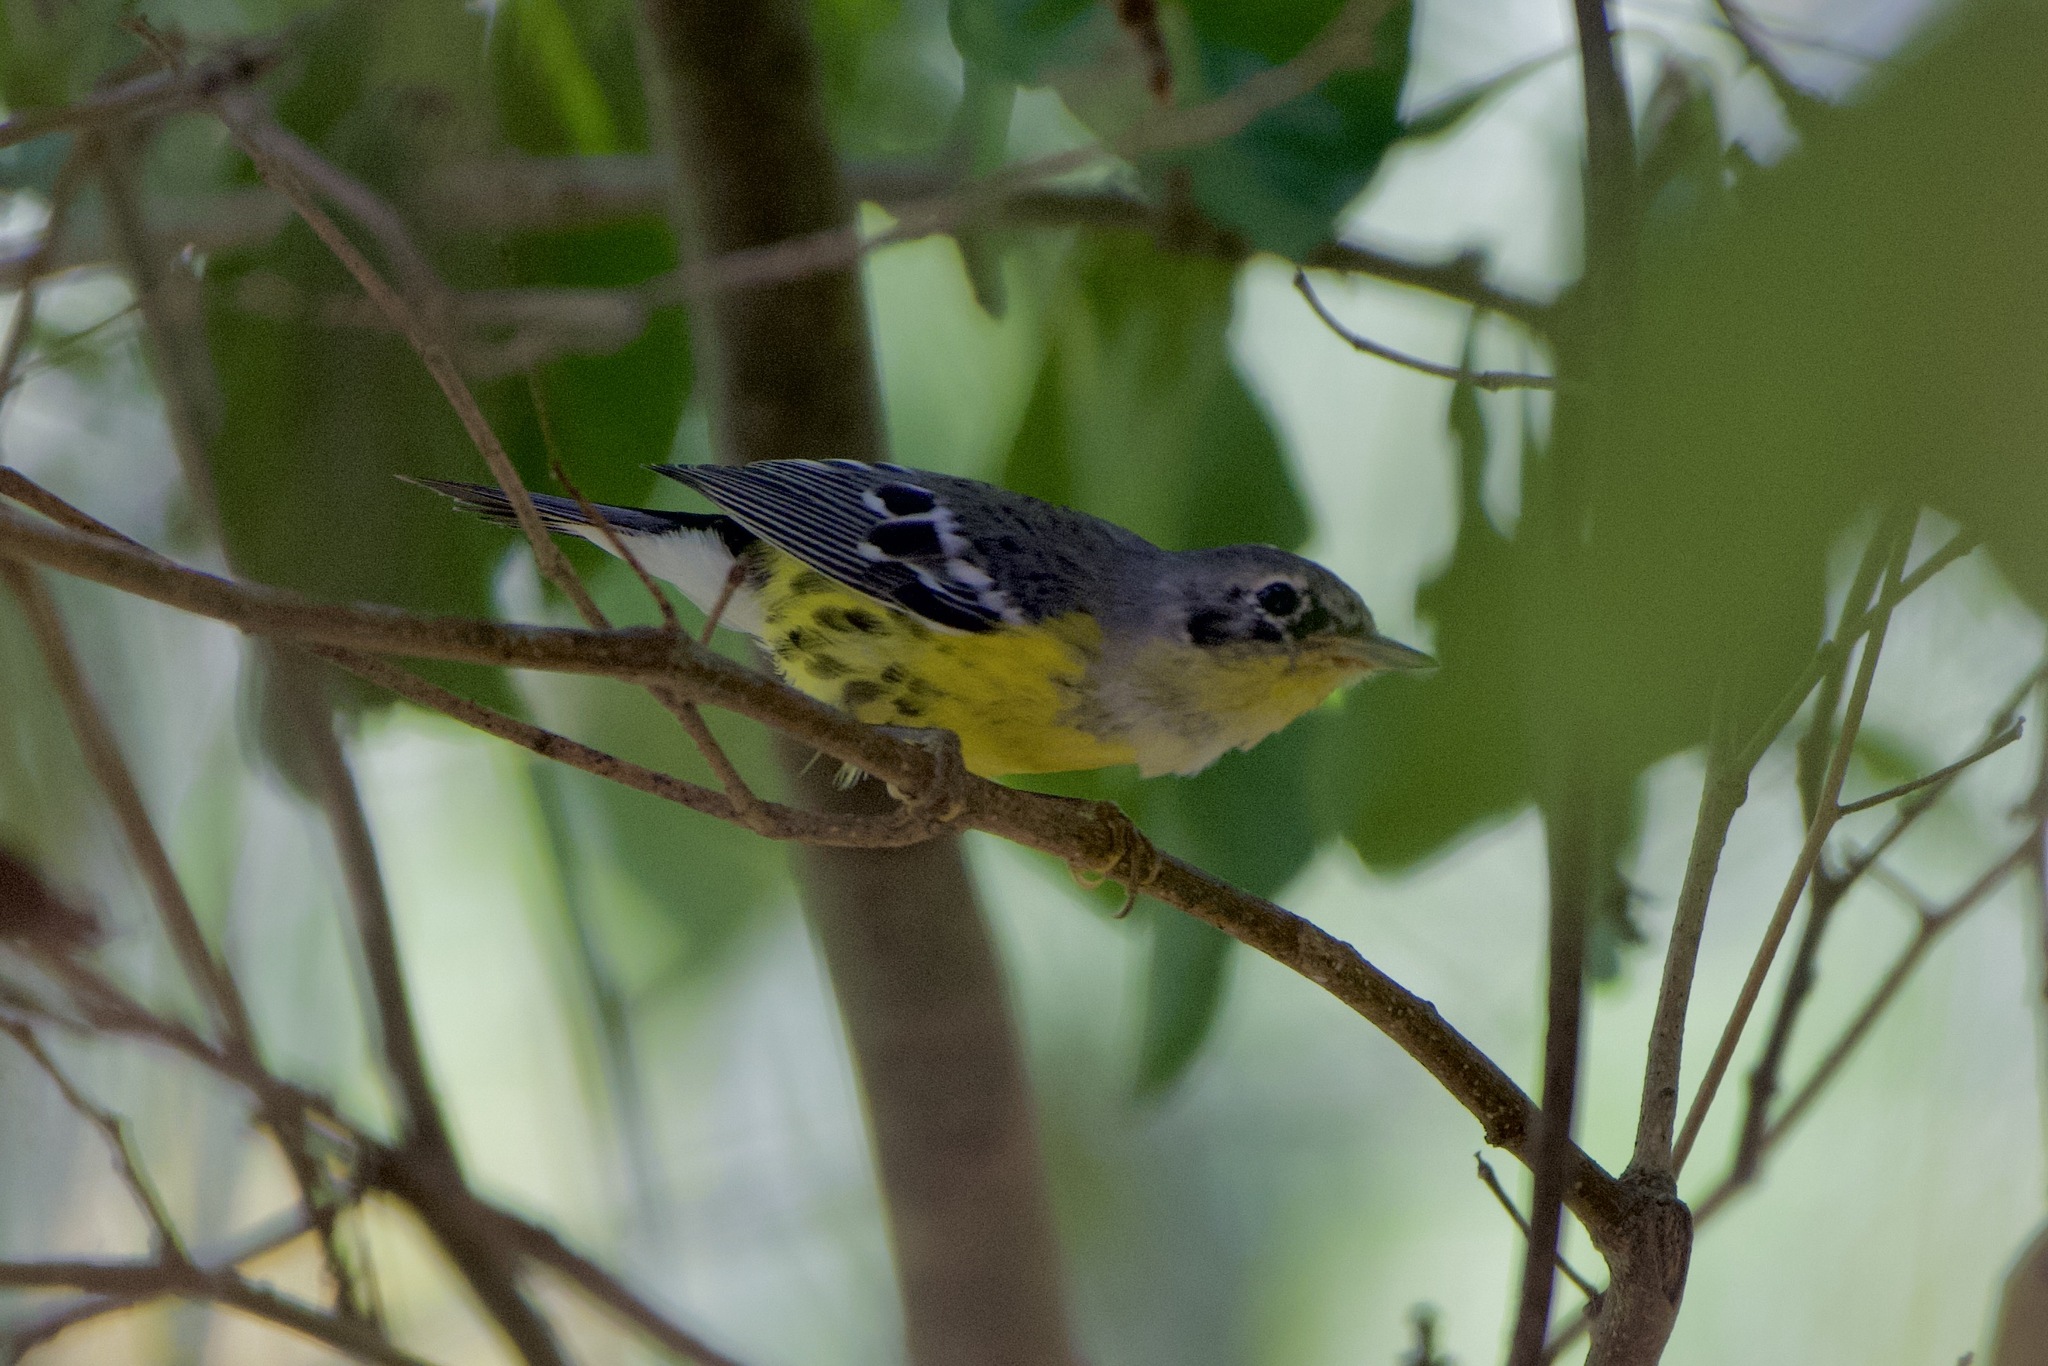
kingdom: Animalia
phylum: Chordata
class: Aves
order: Passeriformes
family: Parulidae
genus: Setophaga
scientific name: Setophaga magnolia
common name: Magnolia warbler
